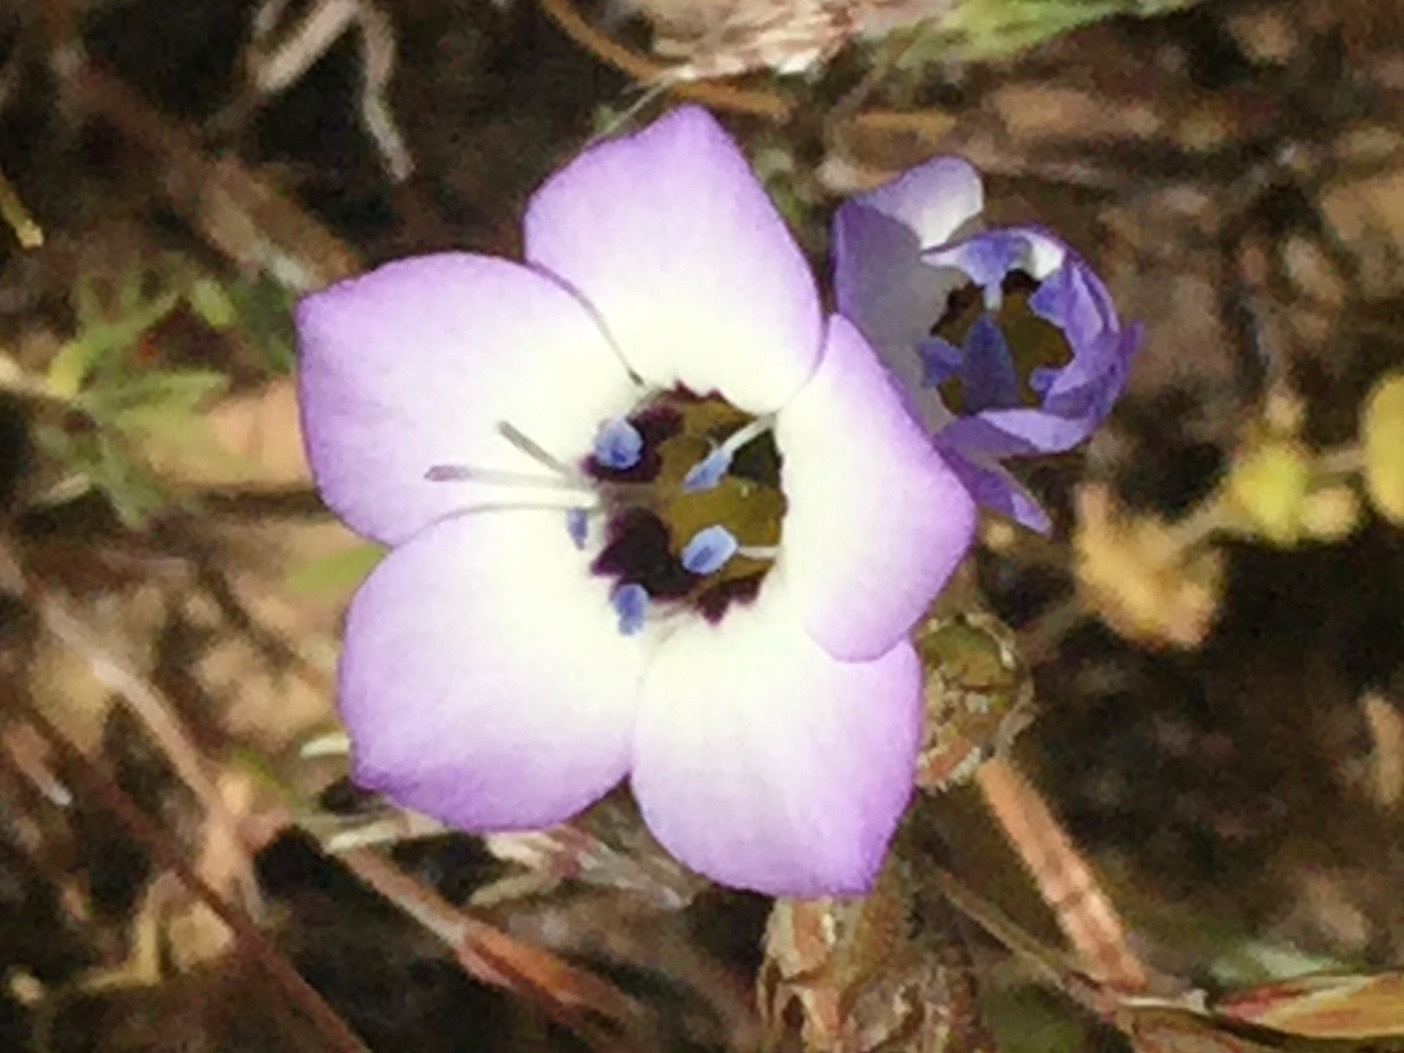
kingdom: Plantae
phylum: Tracheophyta
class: Magnoliopsida
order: Ericales
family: Polemoniaceae
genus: Gilia
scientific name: Gilia tricolor
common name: Bird's-eyes
